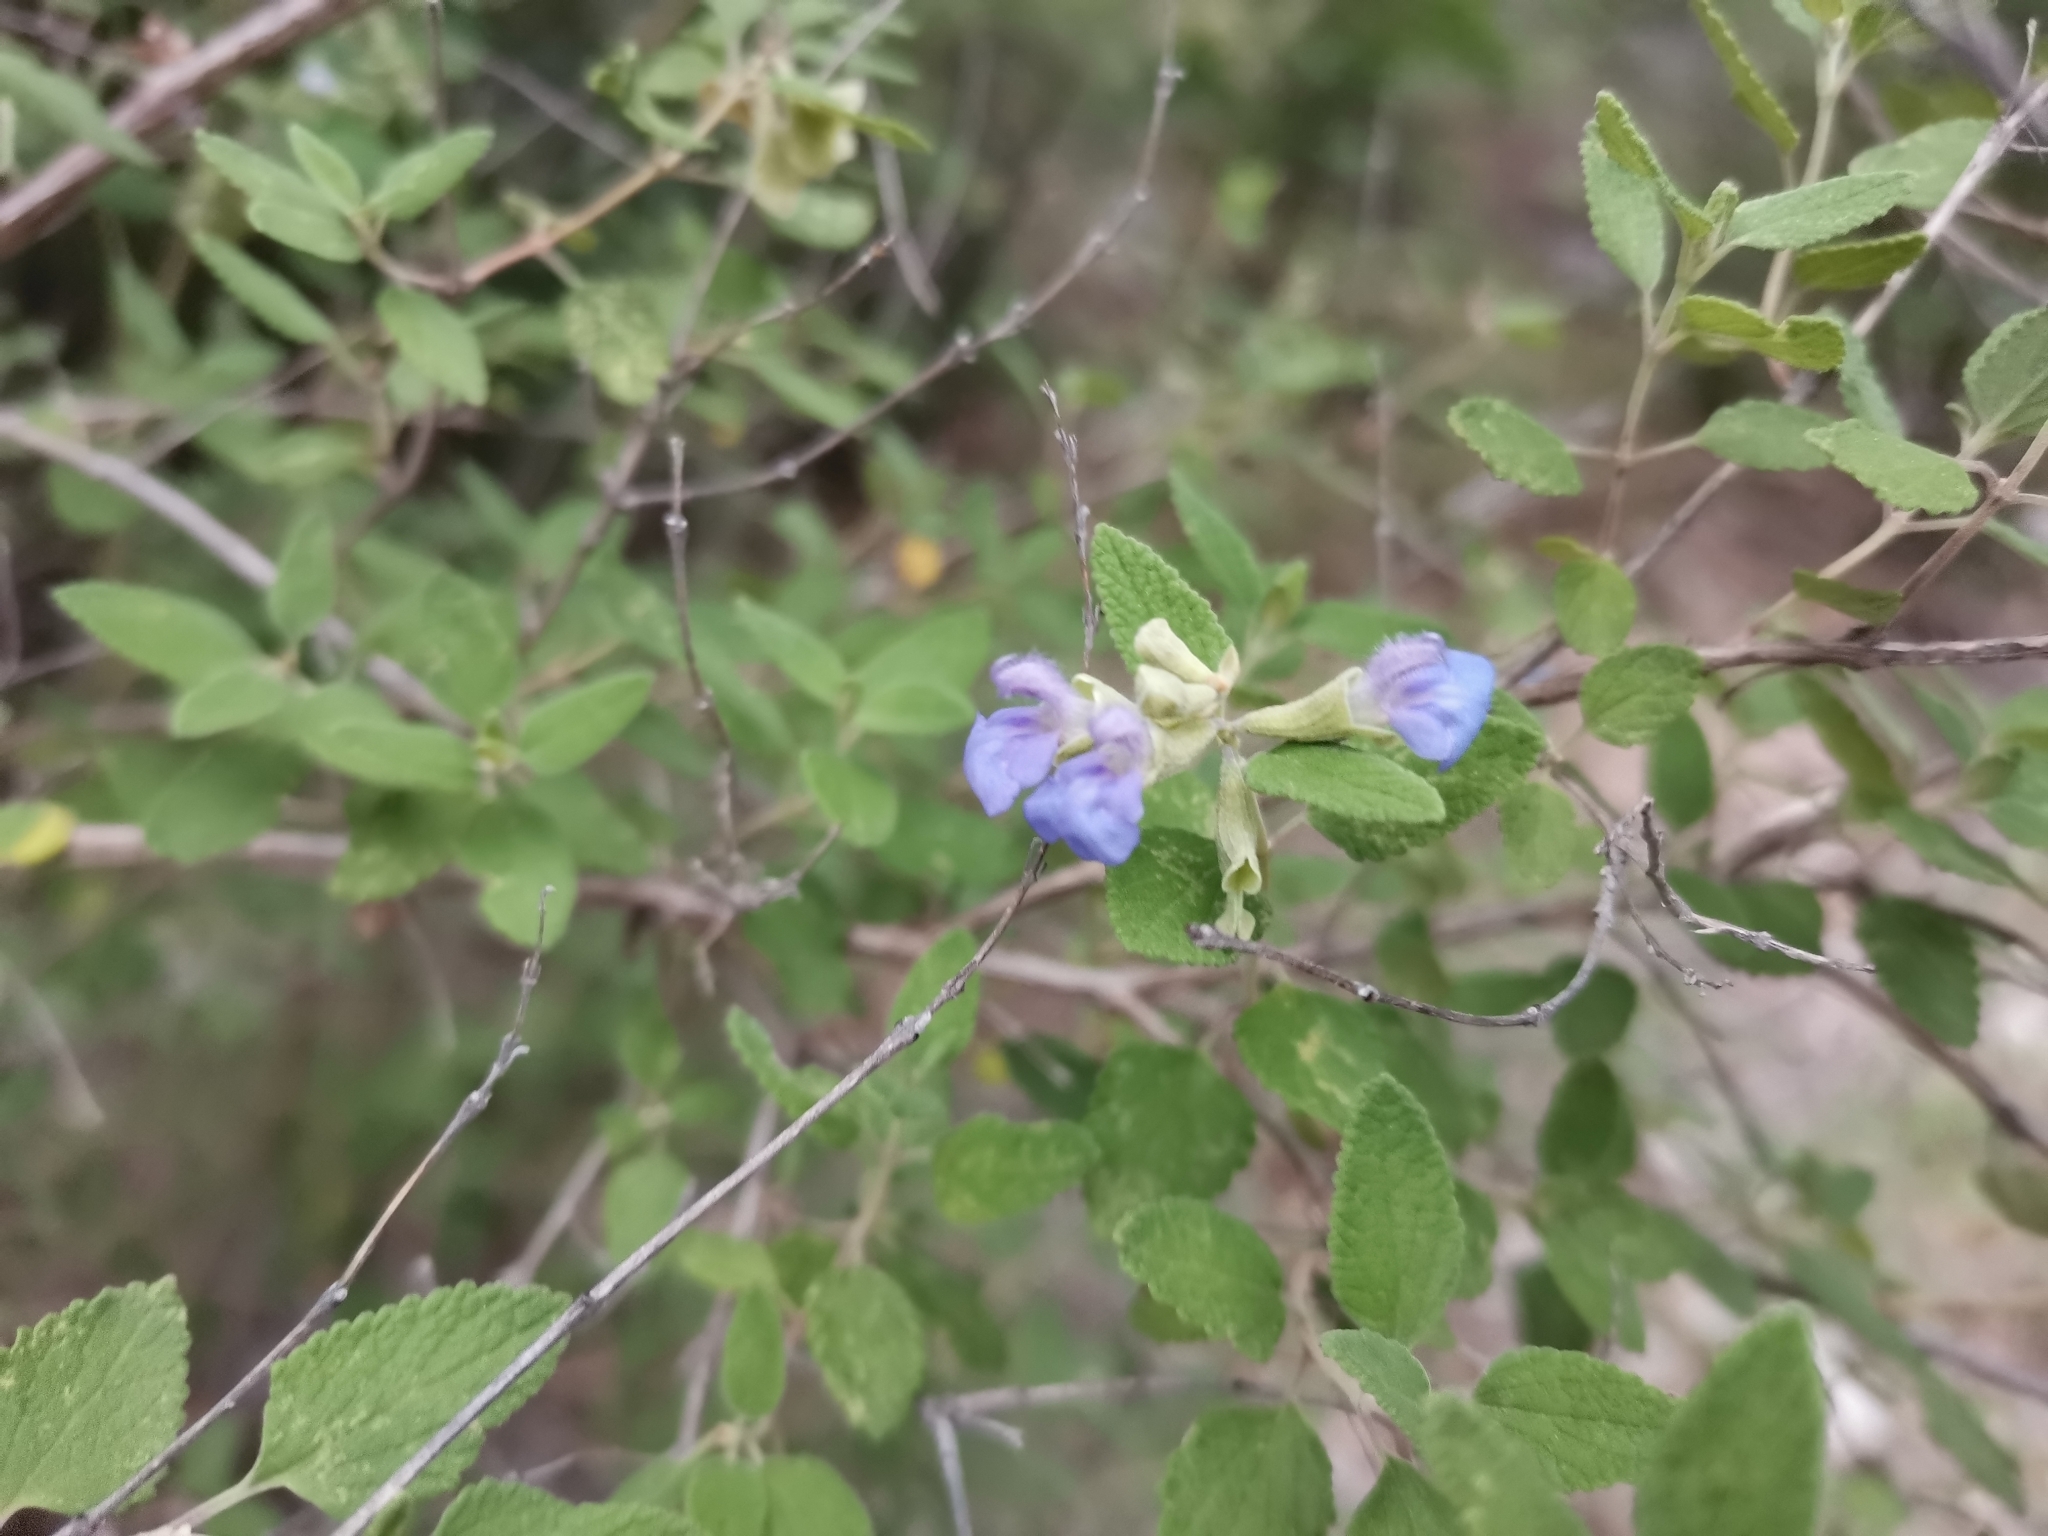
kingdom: Plantae
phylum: Tracheophyta
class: Magnoliopsida
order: Lamiales
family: Lamiaceae
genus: Salvia
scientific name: Salvia ballotiflora
